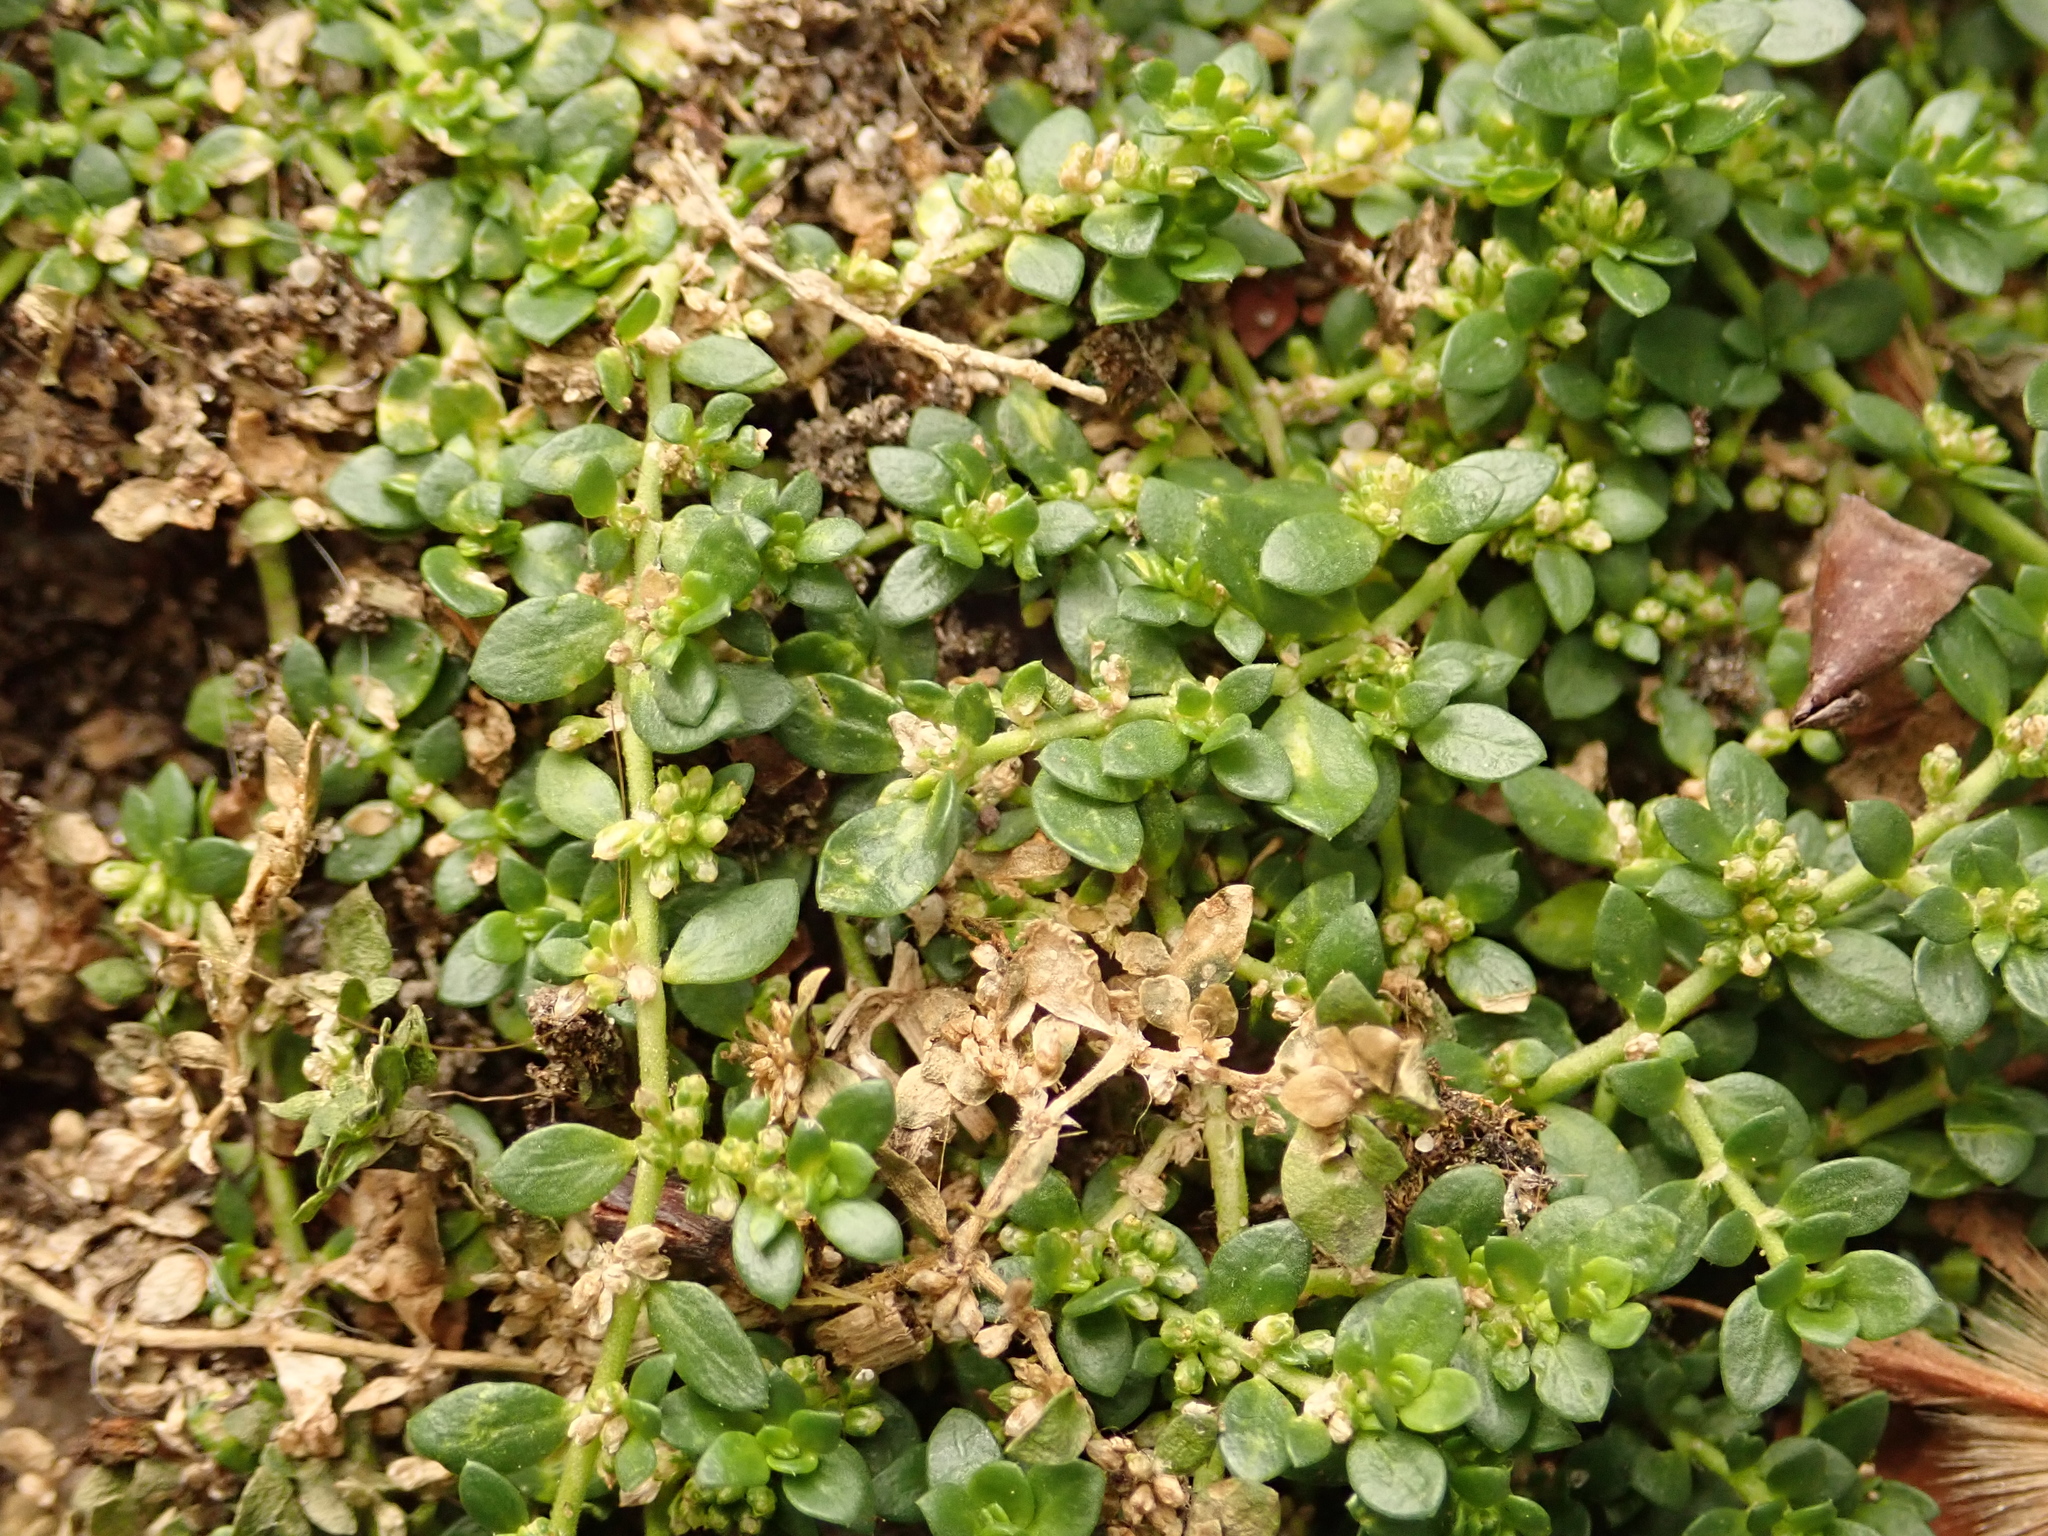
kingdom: Plantae
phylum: Tracheophyta
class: Magnoliopsida
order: Caryophyllales
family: Caryophyllaceae
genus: Herniaria
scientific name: Herniaria glabra
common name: Smooth rupturewort
